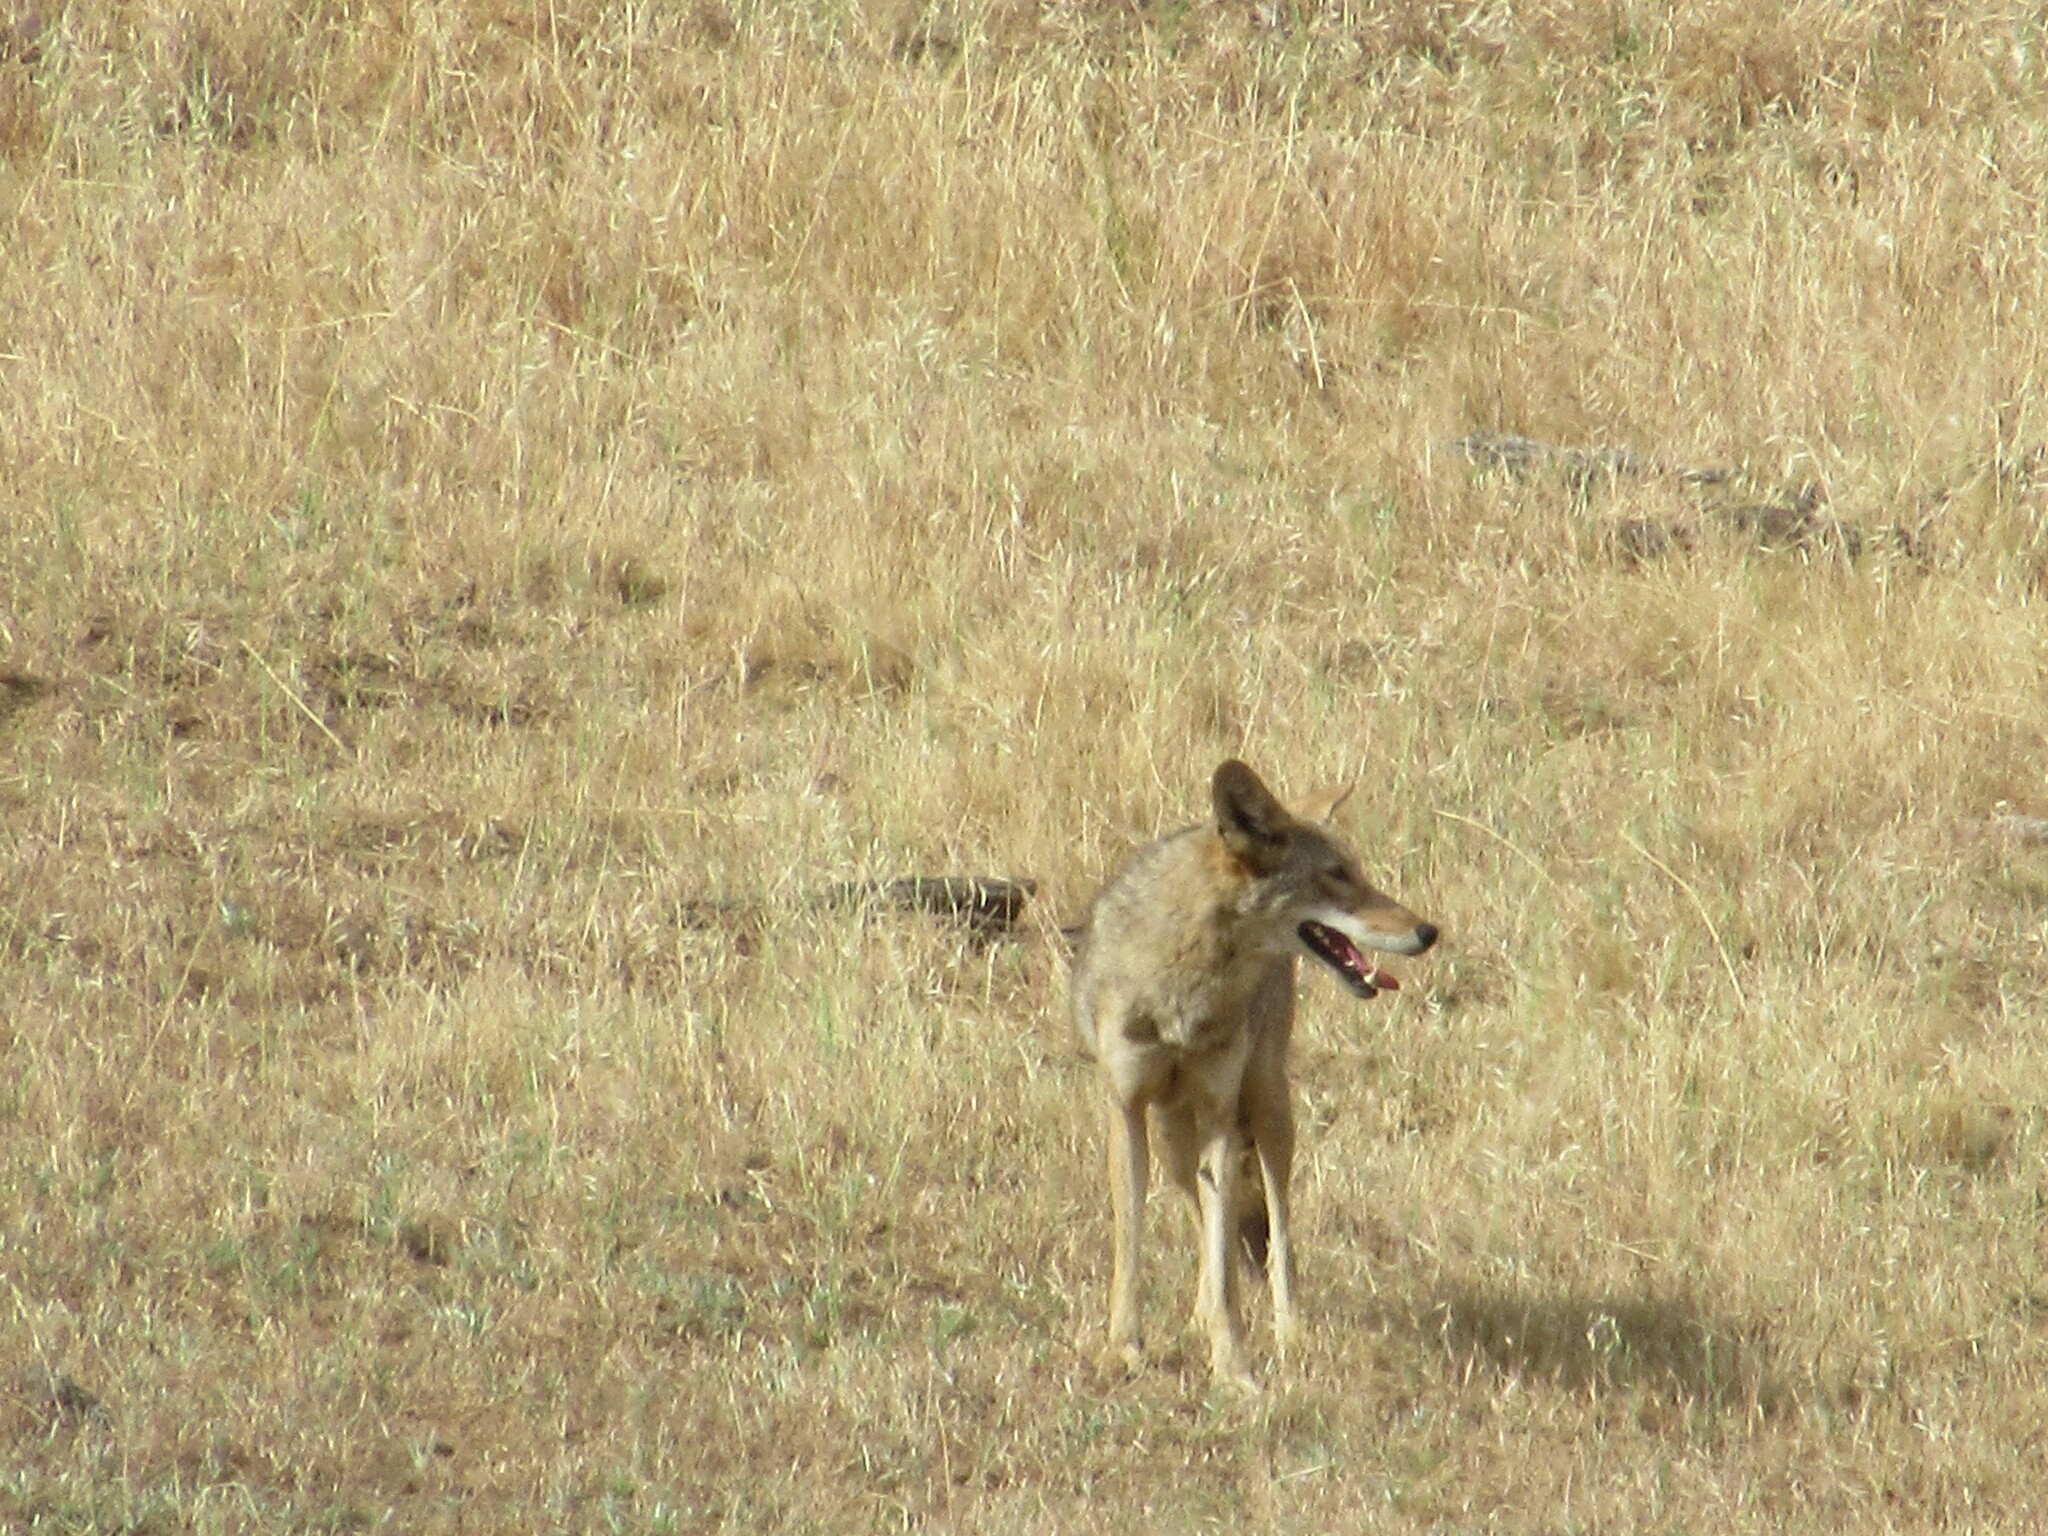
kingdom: Animalia
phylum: Chordata
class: Mammalia
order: Carnivora
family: Canidae
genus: Canis
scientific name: Canis latrans
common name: Coyote
